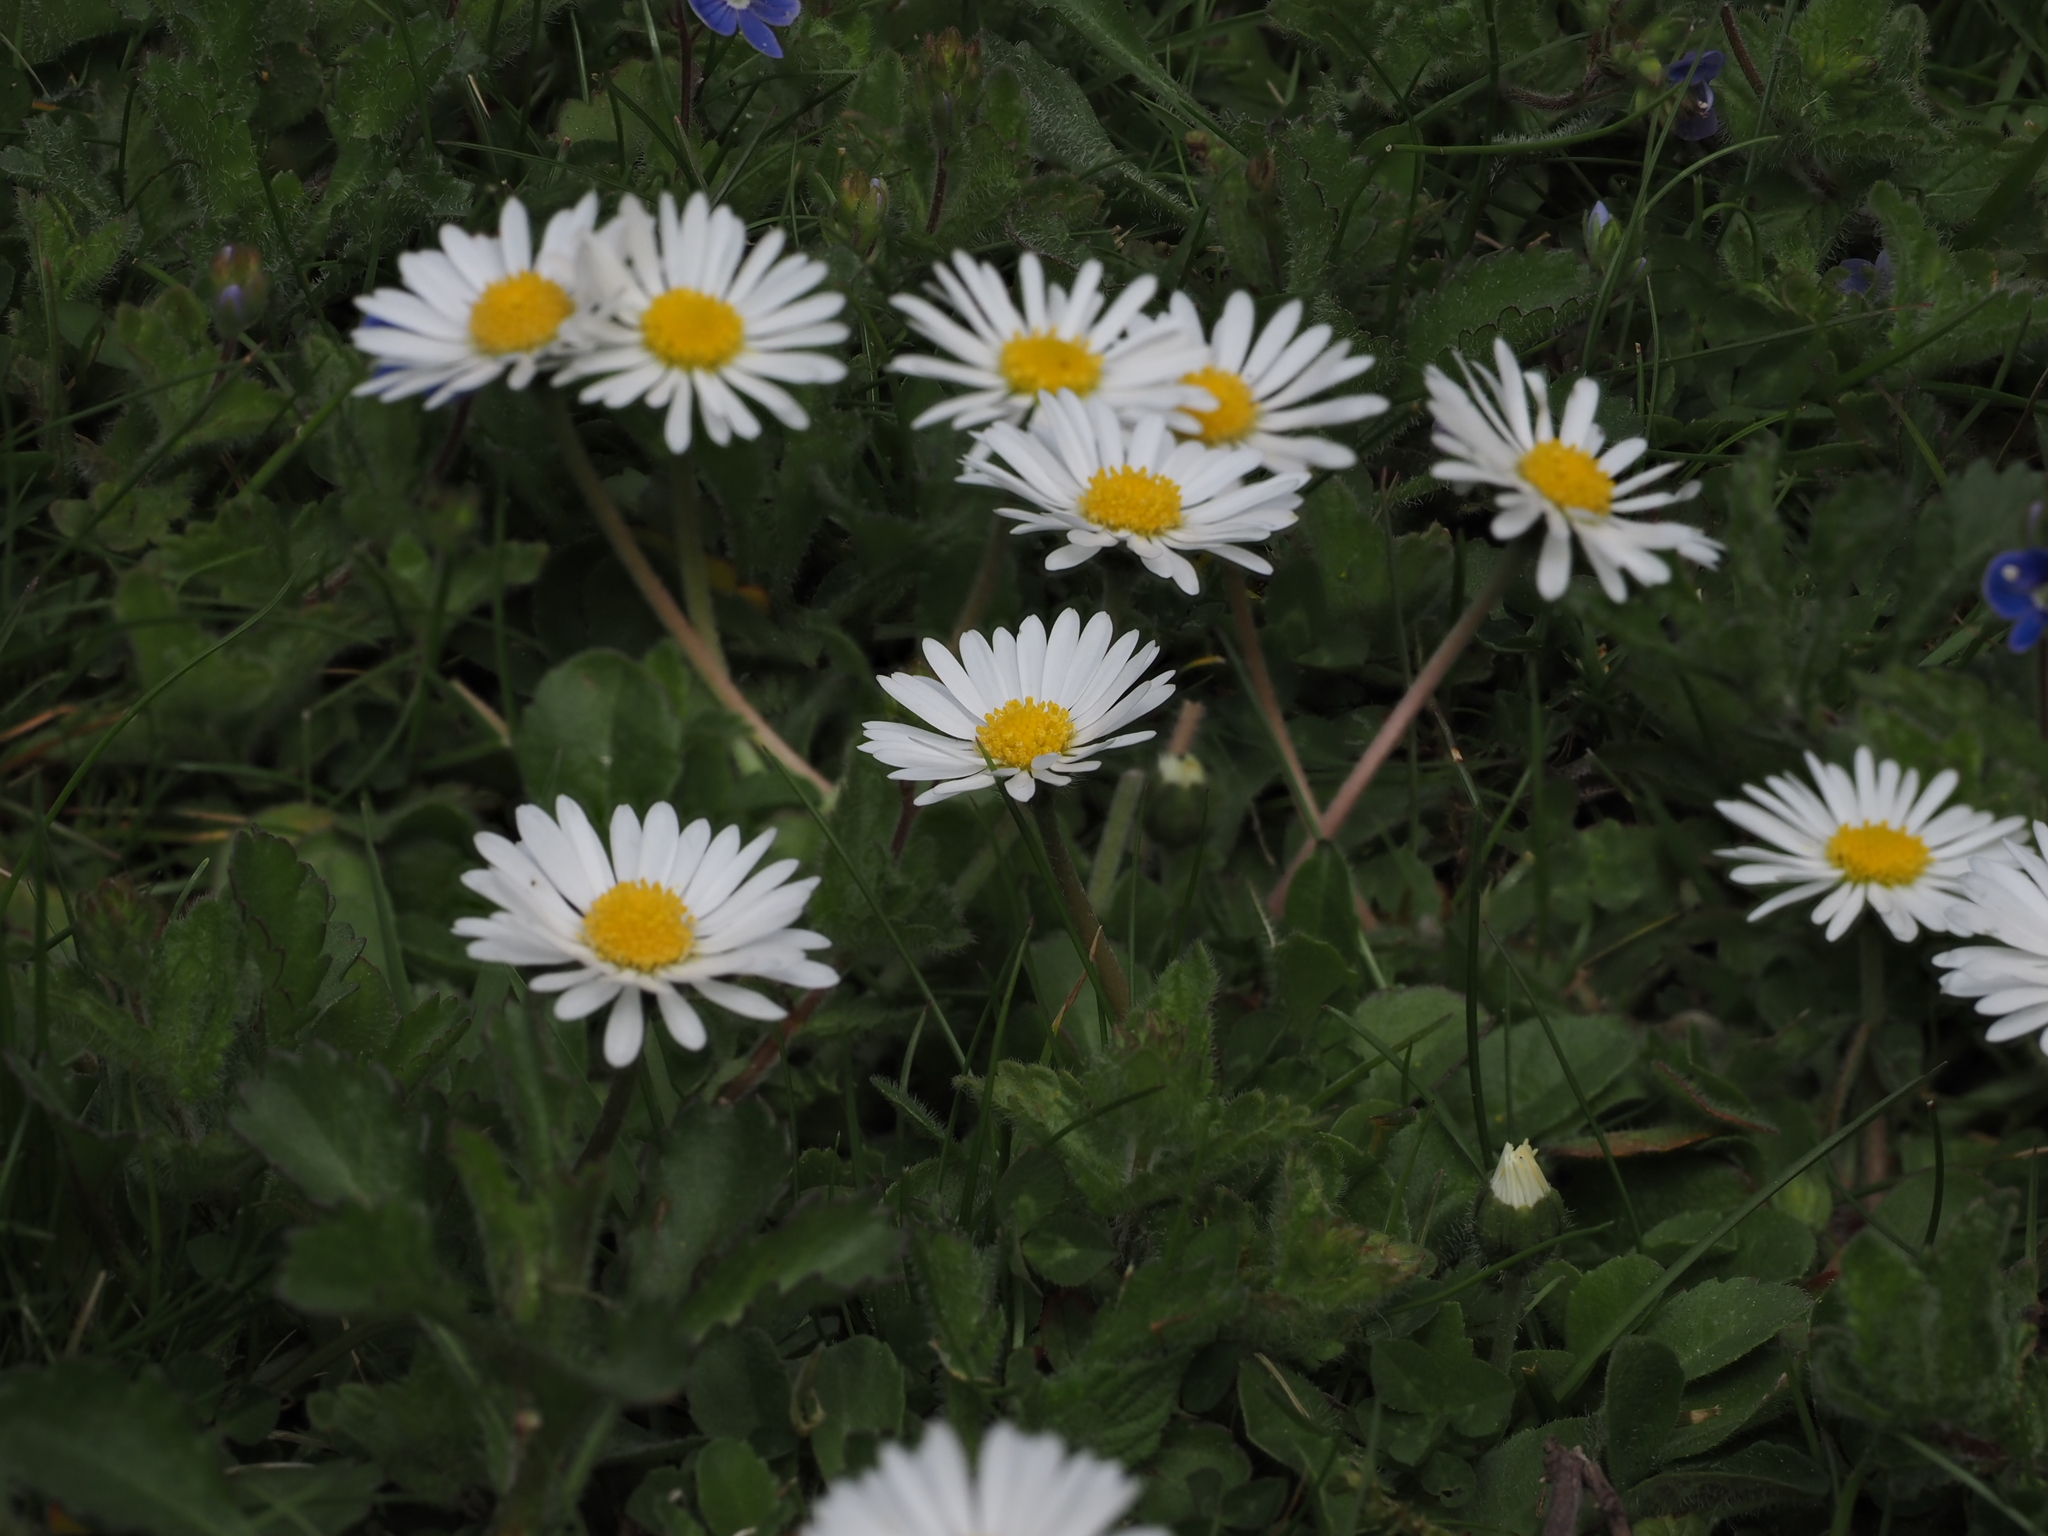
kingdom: Plantae
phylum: Tracheophyta
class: Magnoliopsida
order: Asterales
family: Asteraceae
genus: Bellis
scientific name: Bellis perennis
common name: Lawndaisy
